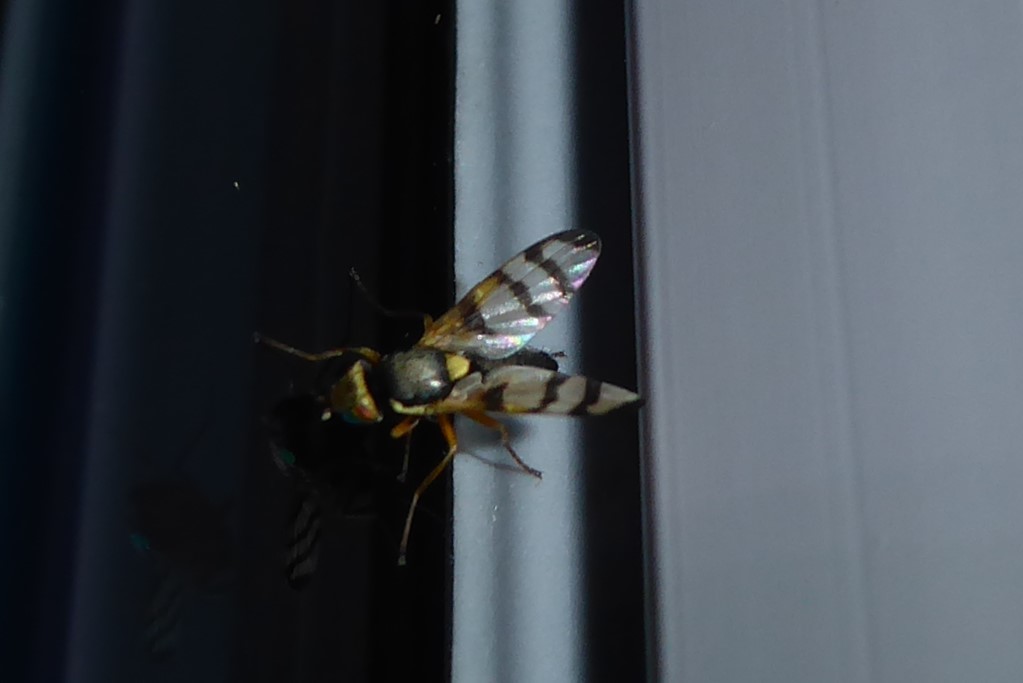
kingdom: Animalia
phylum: Arthropoda
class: Insecta
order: Diptera
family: Tephritidae
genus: Urophora
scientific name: Urophora solstitialis
